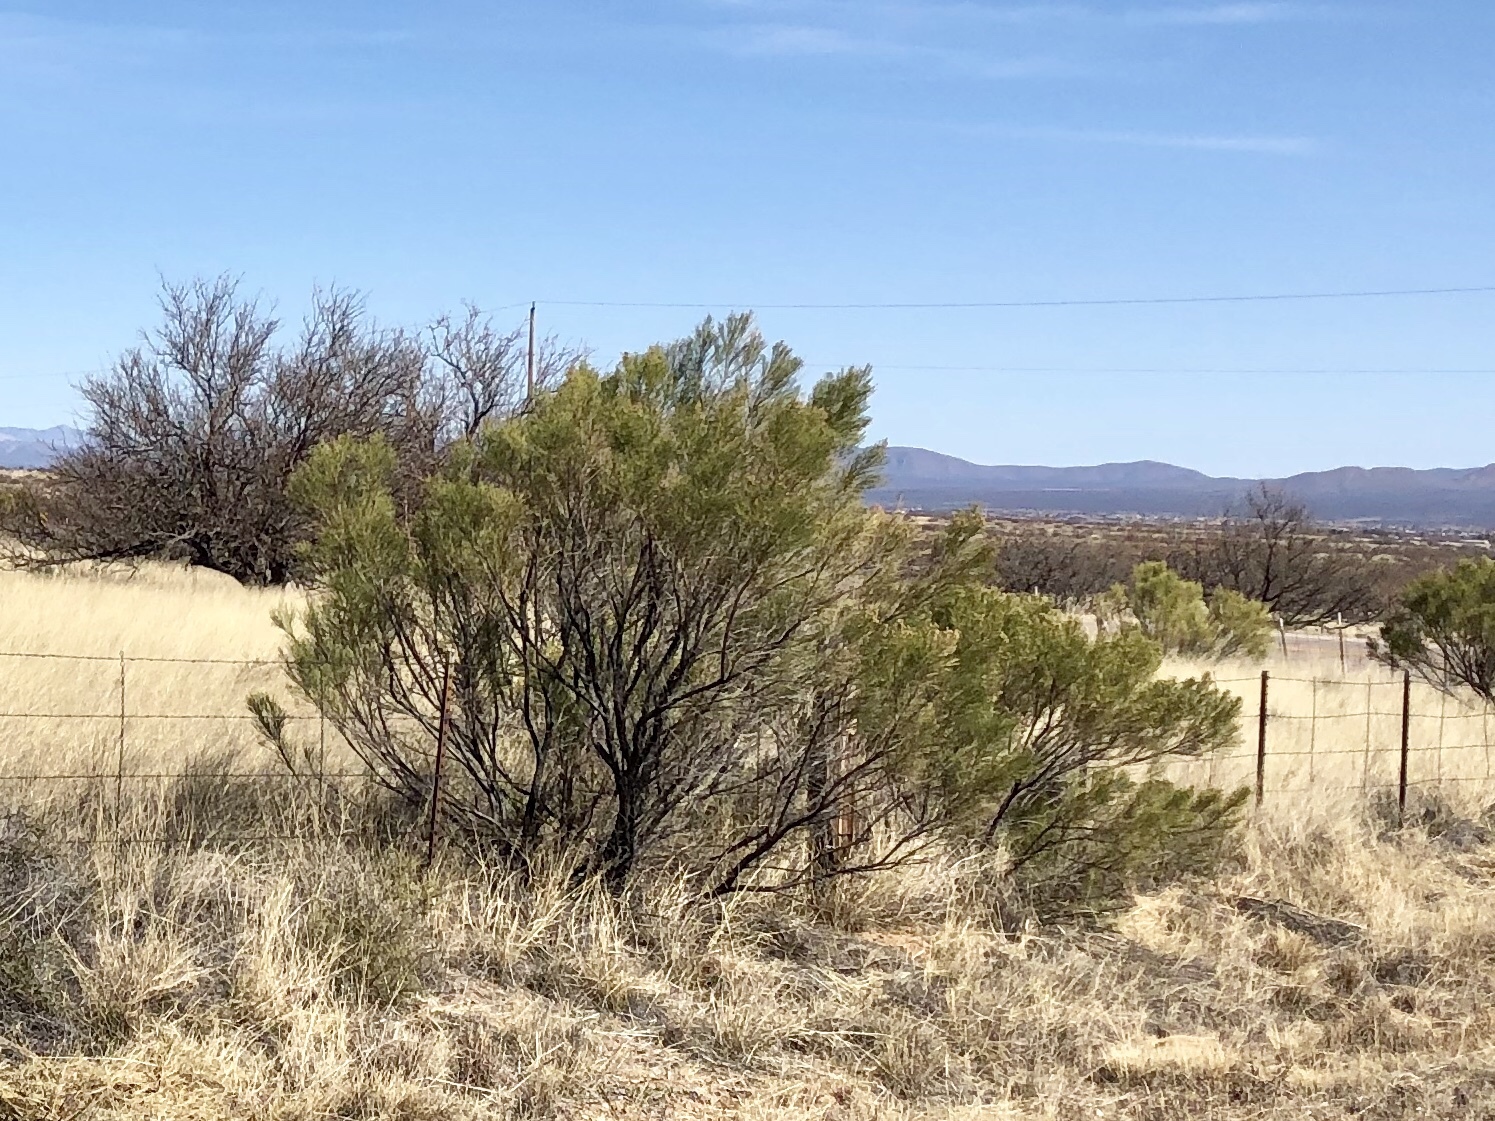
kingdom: Plantae
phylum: Tracheophyta
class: Magnoliopsida
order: Asterales
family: Asteraceae
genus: Baccharis
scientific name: Baccharis sarothroides
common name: Desert-broom
